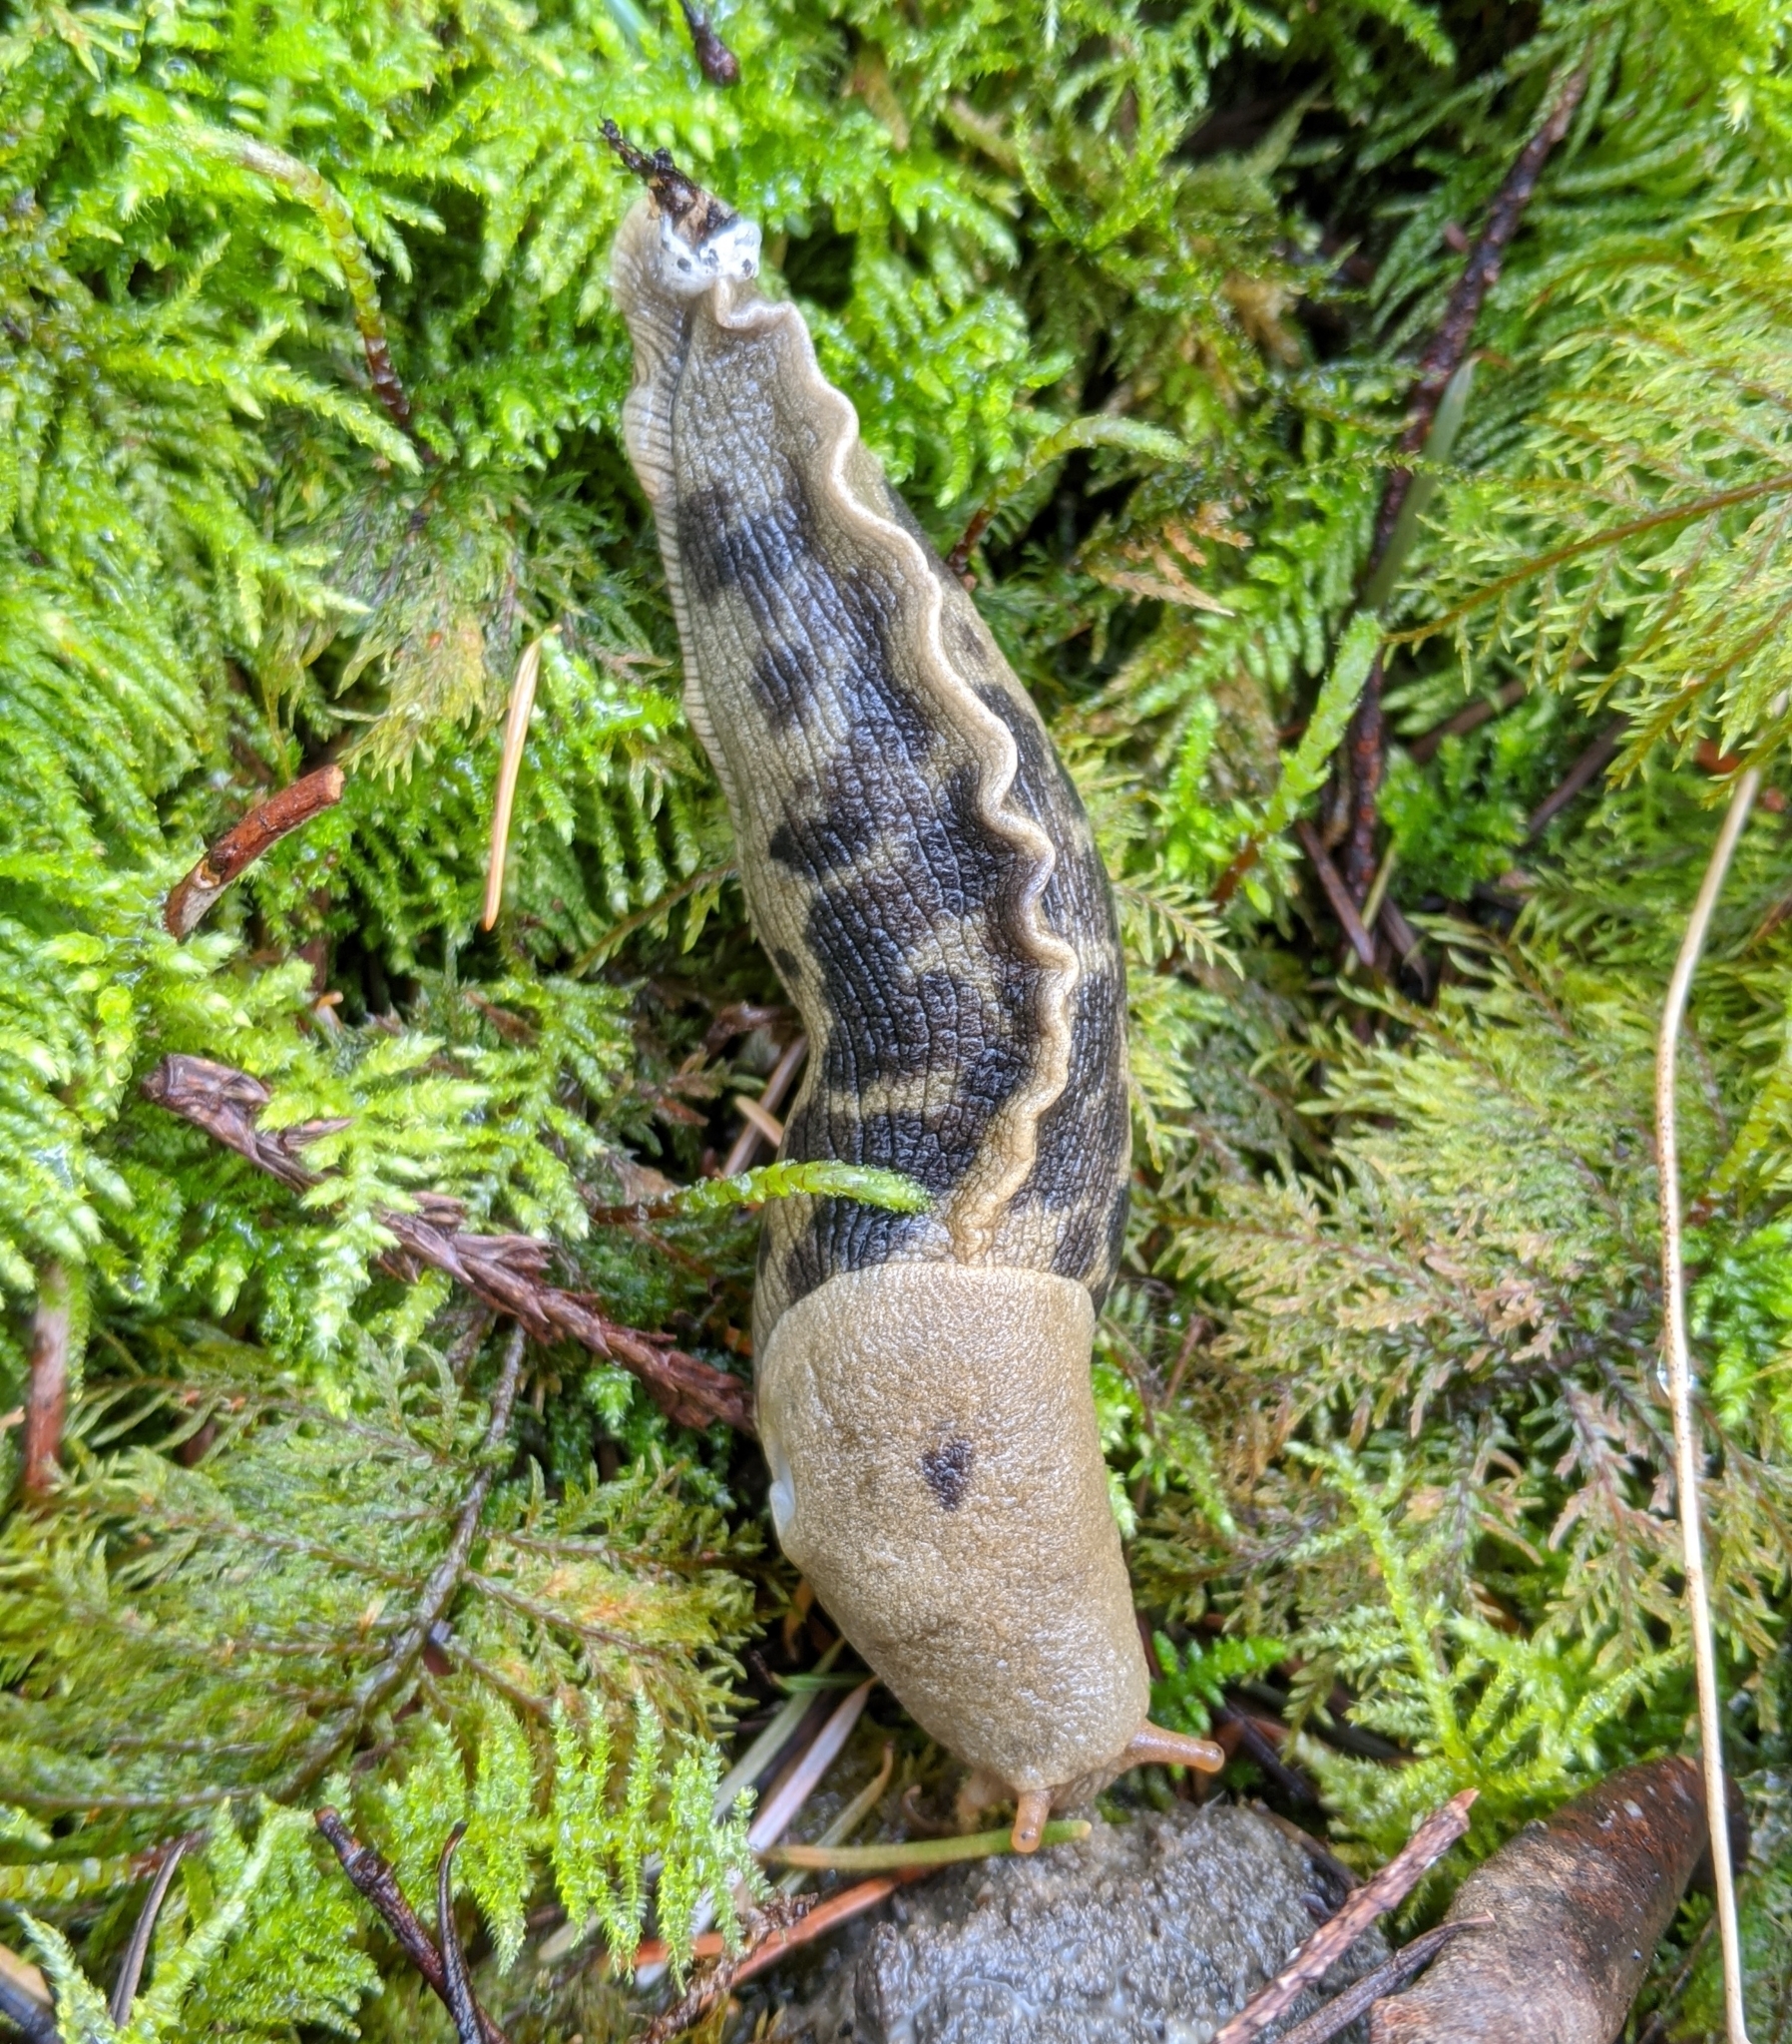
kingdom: Animalia
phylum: Mollusca
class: Gastropoda
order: Stylommatophora
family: Ariolimacidae
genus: Ariolimax
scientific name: Ariolimax columbianus
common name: Pacific banana slug
